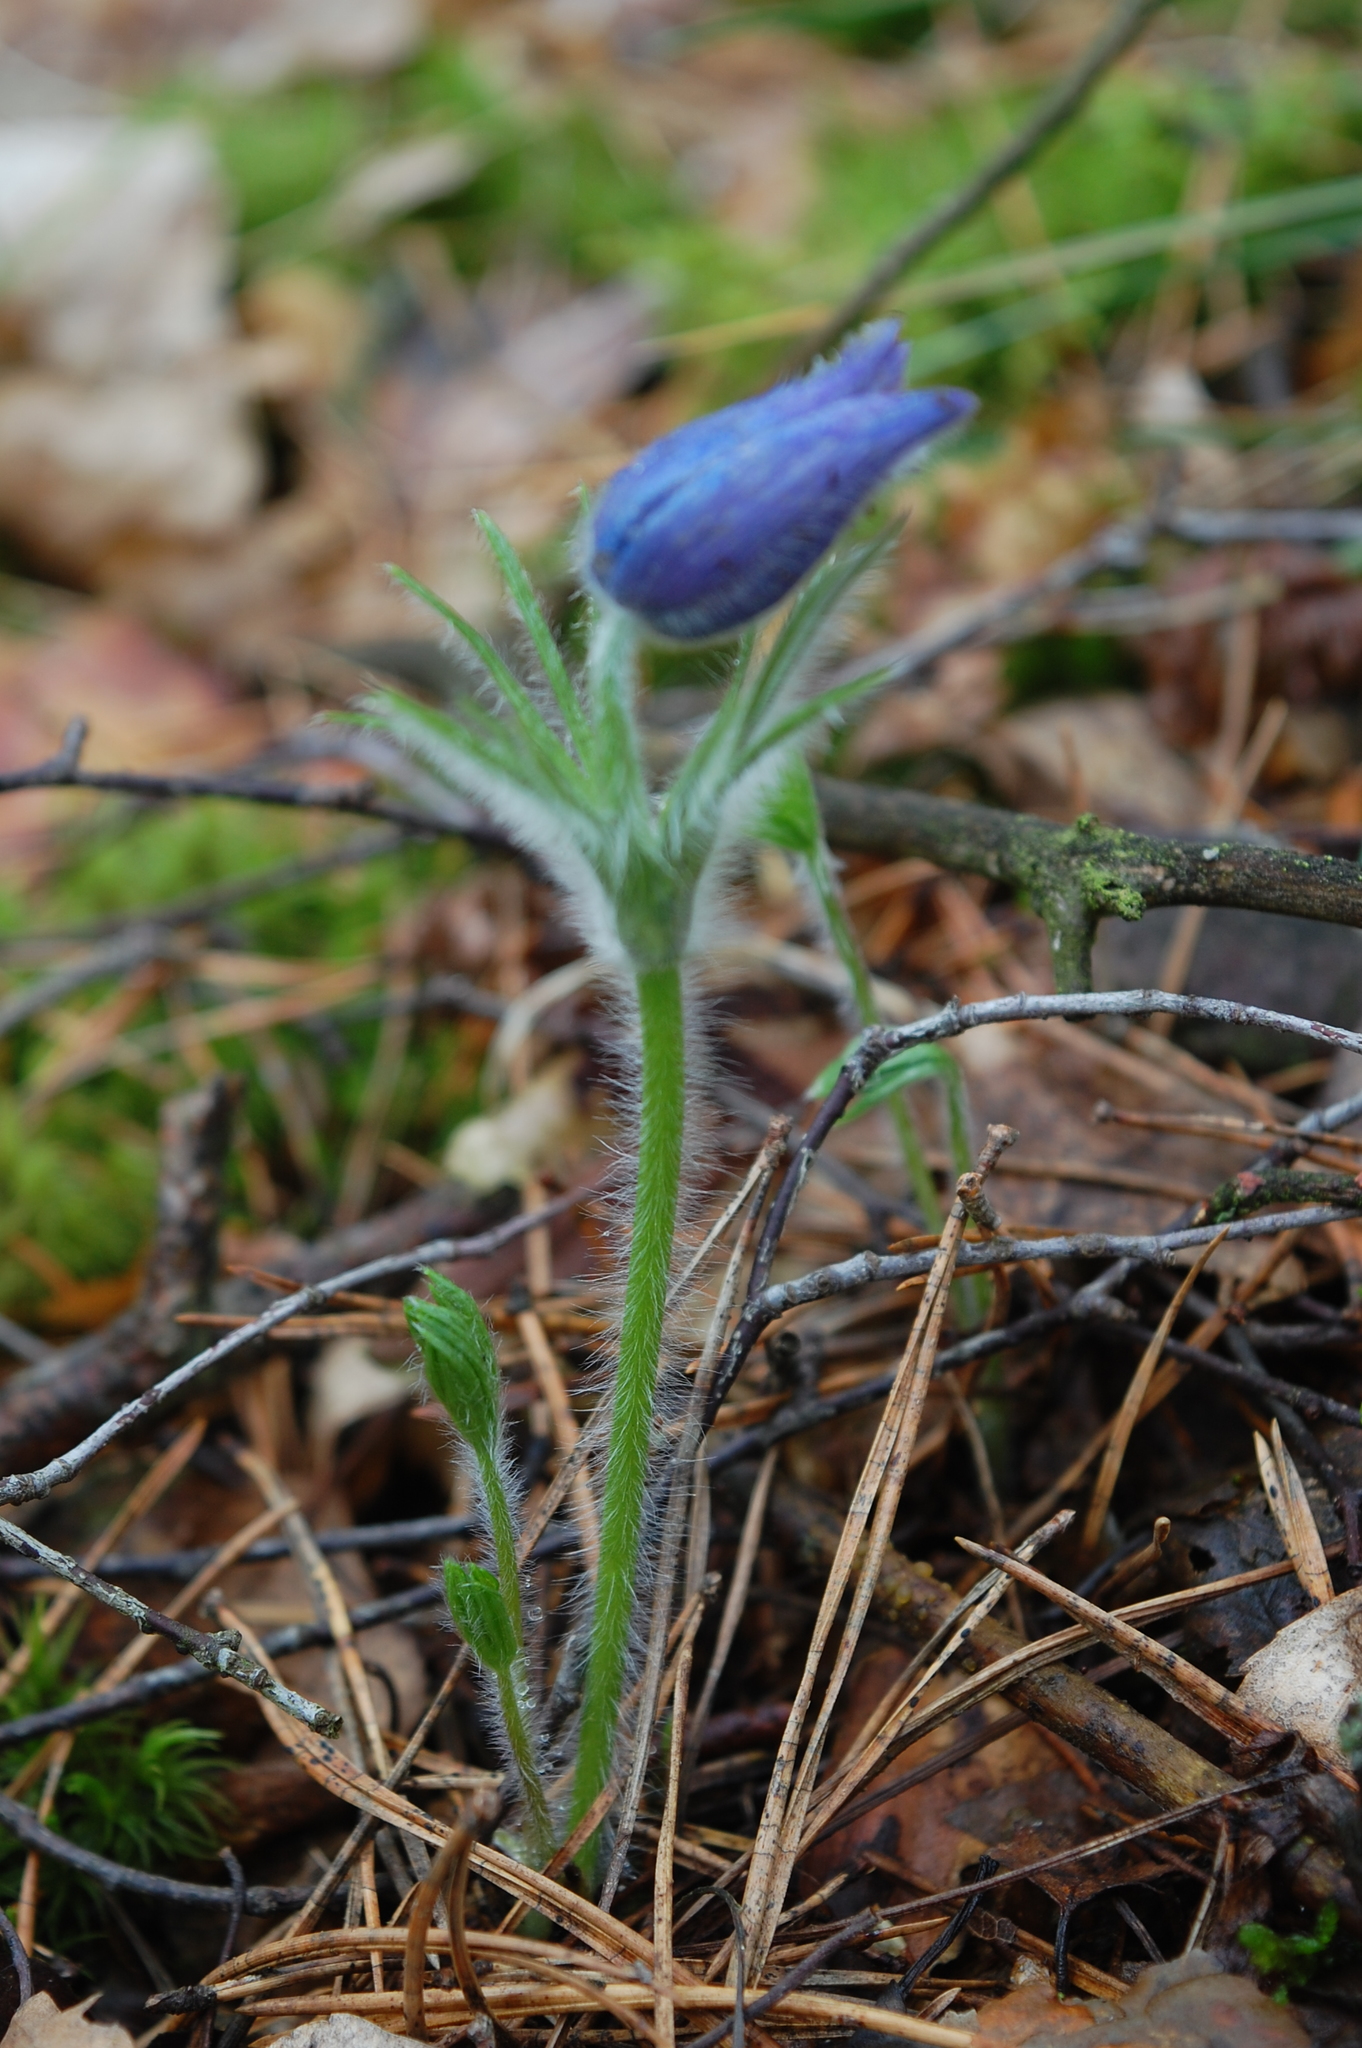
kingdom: Plantae
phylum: Tracheophyta
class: Magnoliopsida
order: Ranunculales
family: Ranunculaceae
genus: Pulsatilla
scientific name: Pulsatilla patens
